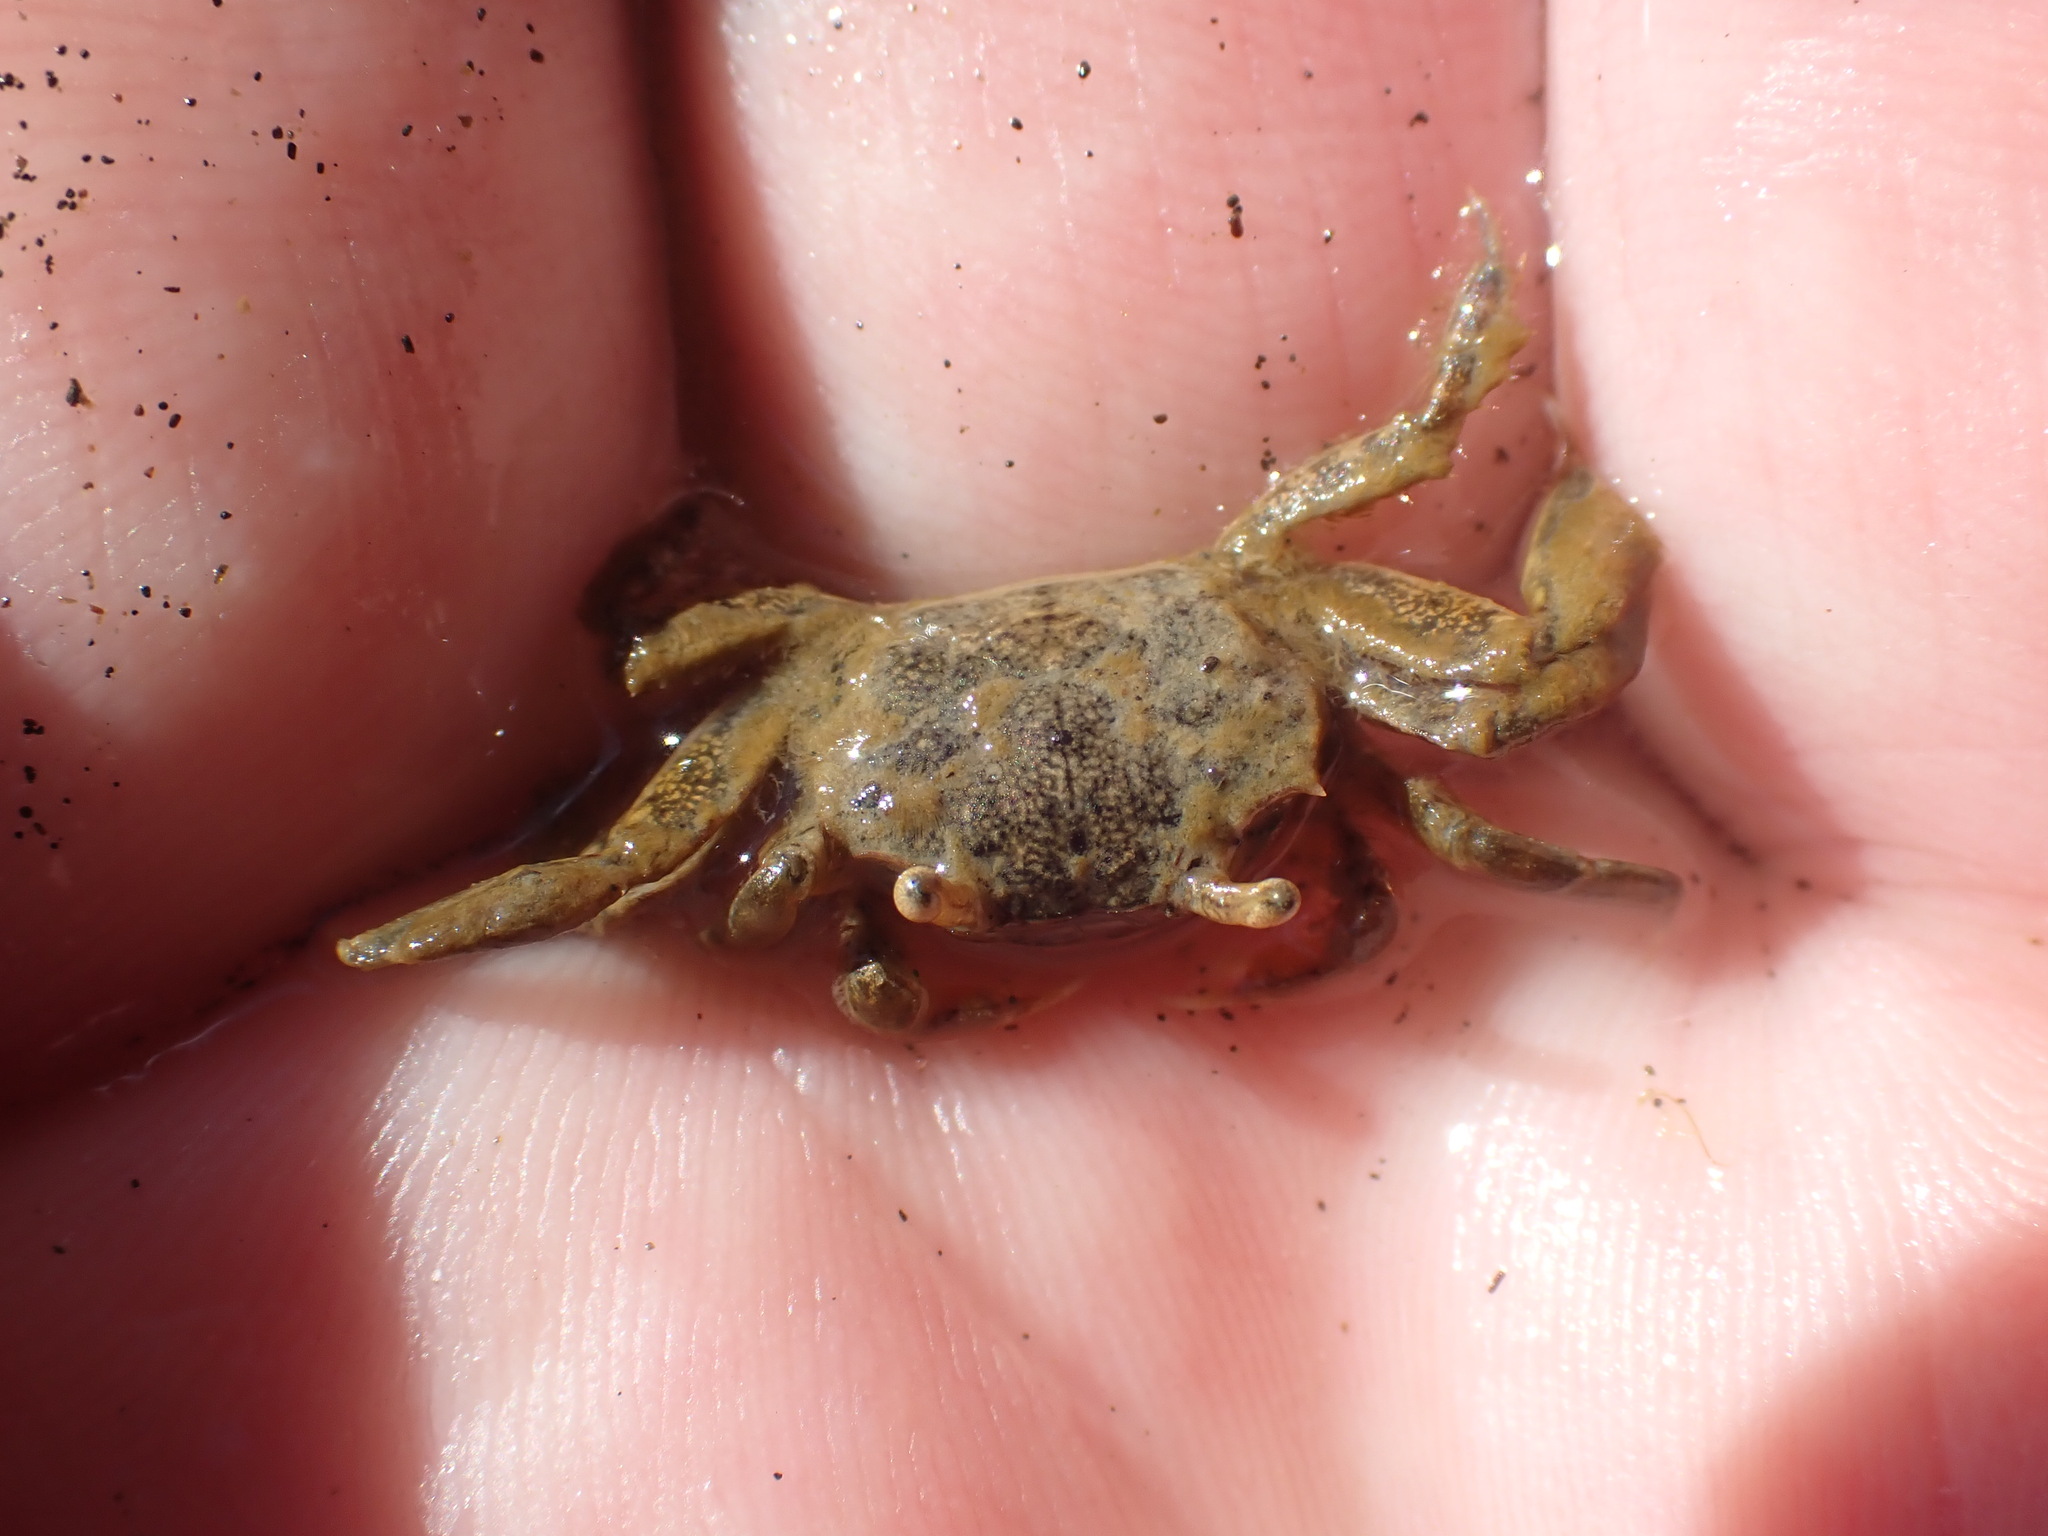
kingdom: Animalia
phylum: Arthropoda
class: Malacostraca
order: Decapoda
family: Varunidae
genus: Austrohelice
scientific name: Austrohelice crassa
